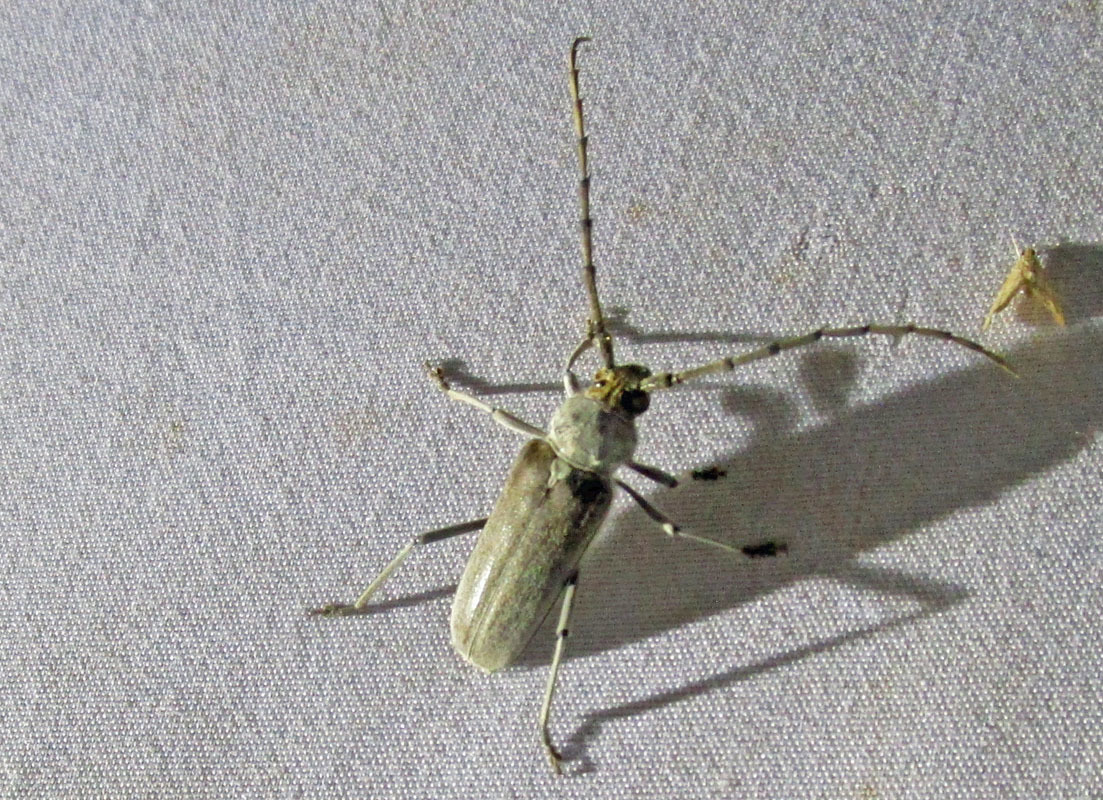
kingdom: Animalia
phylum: Arthropoda
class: Insecta
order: Coleoptera
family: Cerambycidae
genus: Gnaphalodes
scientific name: Gnaphalodes trachyderoides
